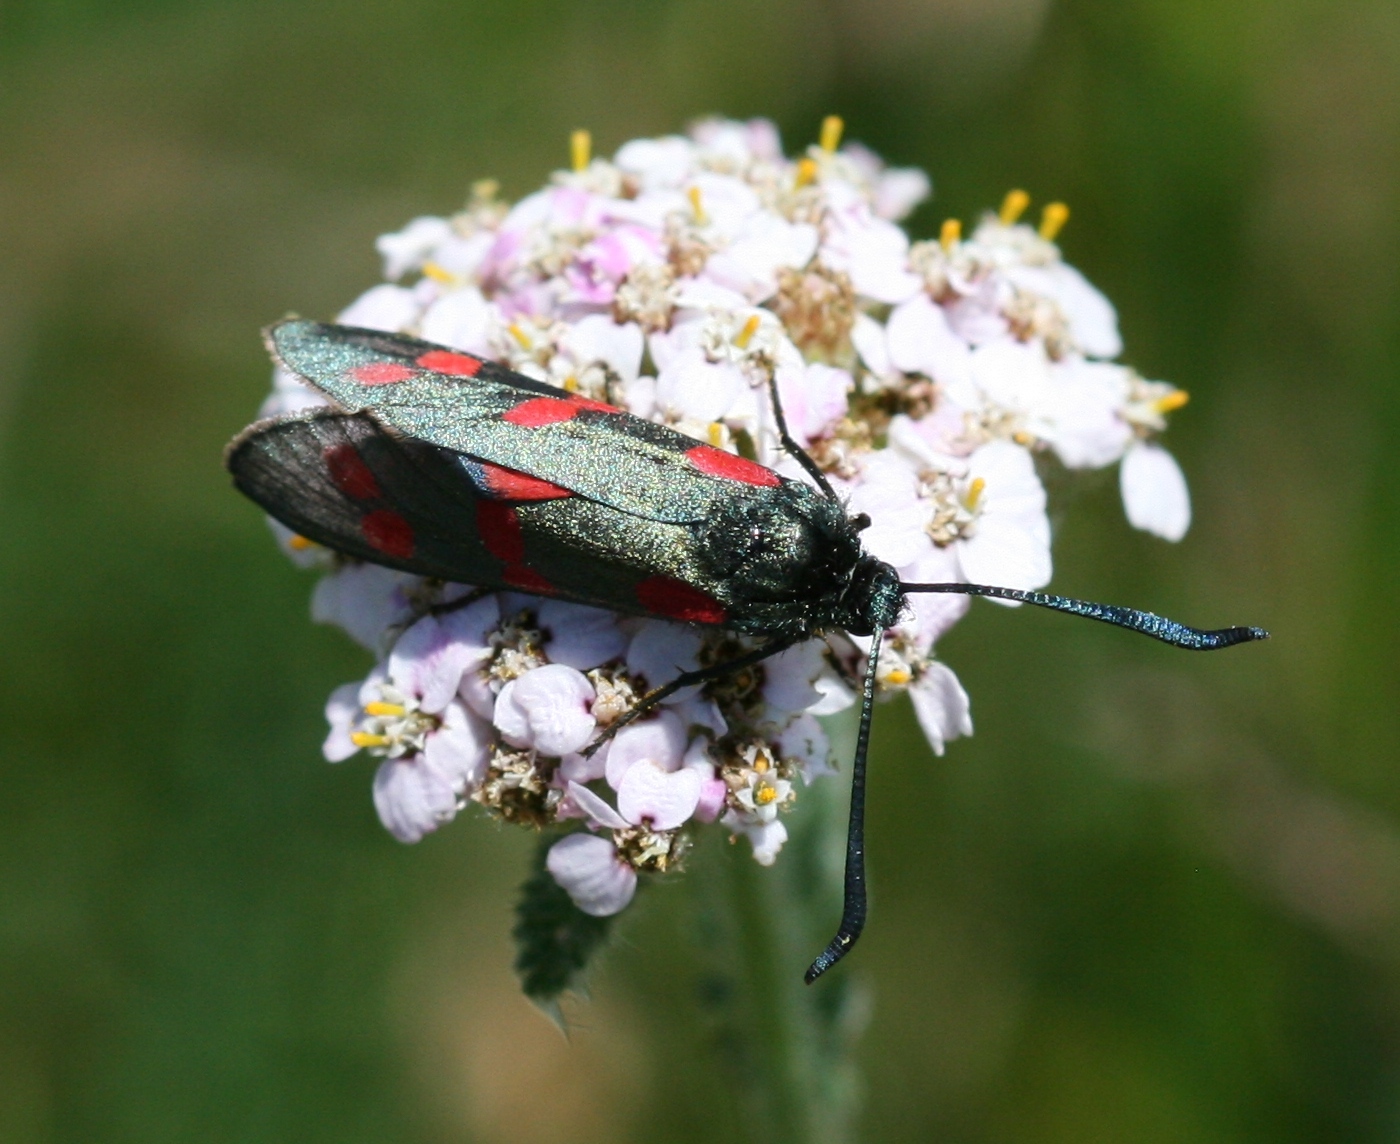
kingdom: Animalia
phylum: Arthropoda
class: Insecta
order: Lepidoptera
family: Zygaenidae
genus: Zygaena
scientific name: Zygaena filipendulae
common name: Six-spot burnet
